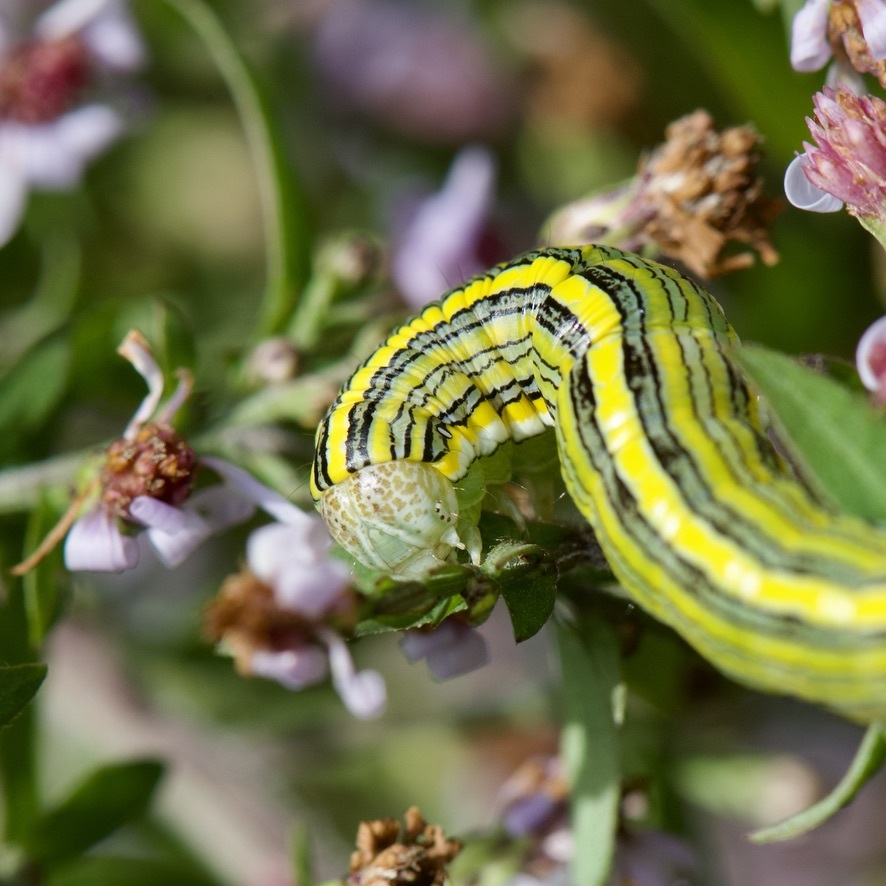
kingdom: Animalia
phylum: Arthropoda
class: Insecta
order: Lepidoptera
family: Noctuidae
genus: Cucullia
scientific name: Cucullia asteroides
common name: Asteroid moth
